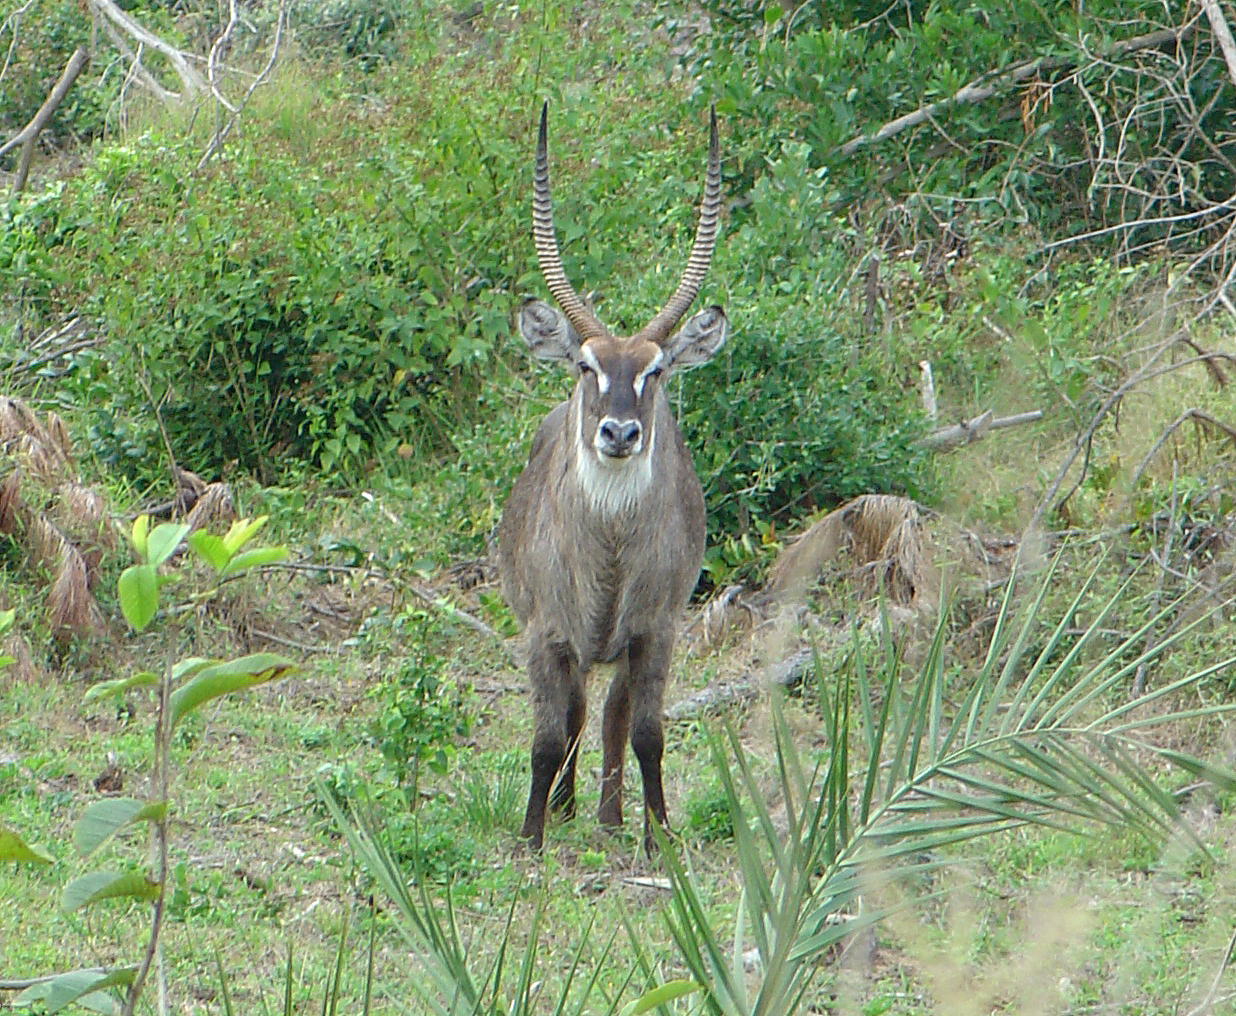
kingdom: Animalia
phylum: Chordata
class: Mammalia
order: Artiodactyla
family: Bovidae
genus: Kobus
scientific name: Kobus ellipsiprymnus
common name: Waterbuck
